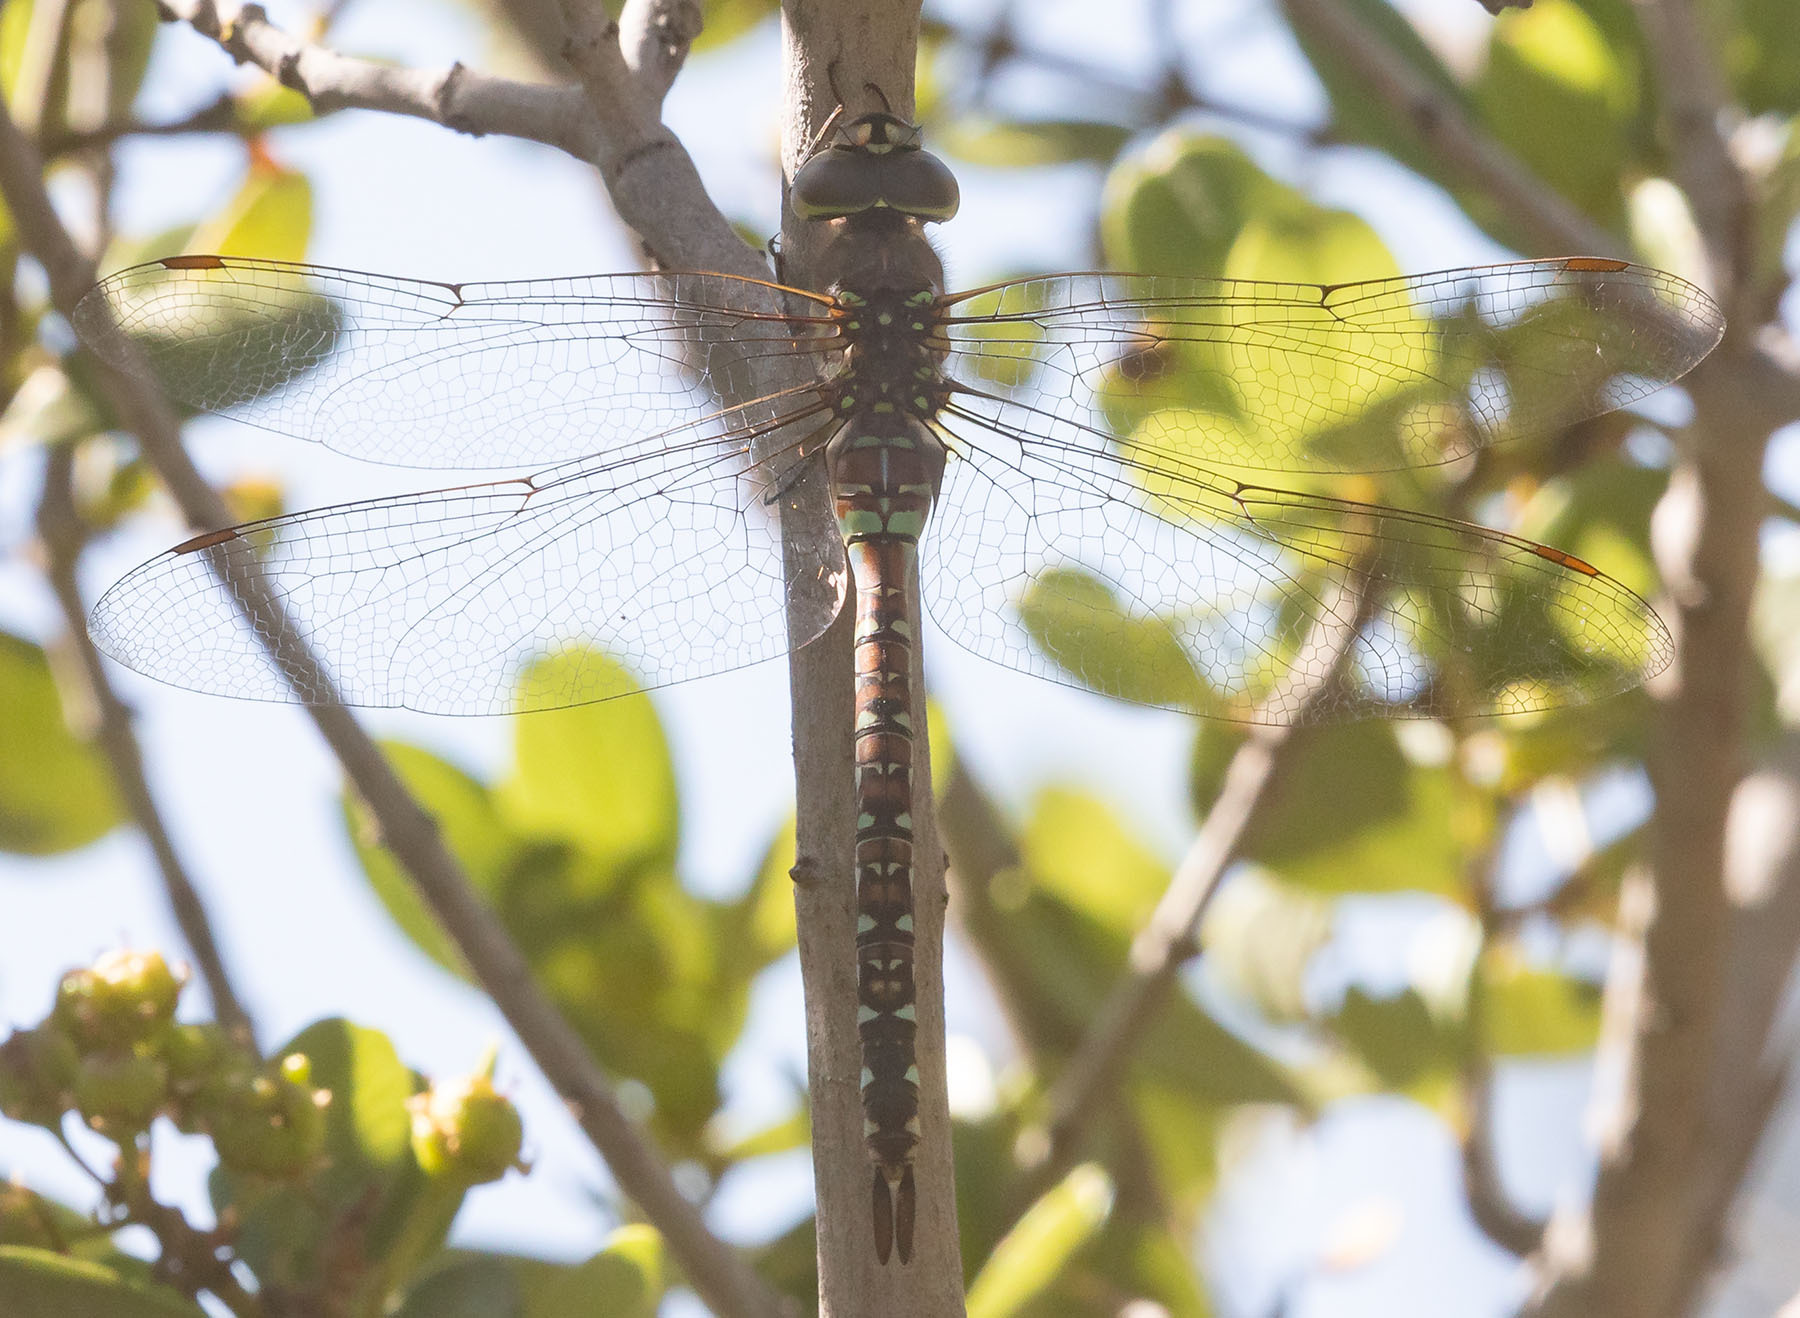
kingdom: Animalia
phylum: Arthropoda
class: Insecta
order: Odonata
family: Aeshnidae
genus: Rhionaeschna
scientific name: Rhionaeschna multicolor
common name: Blue-eyed darner
